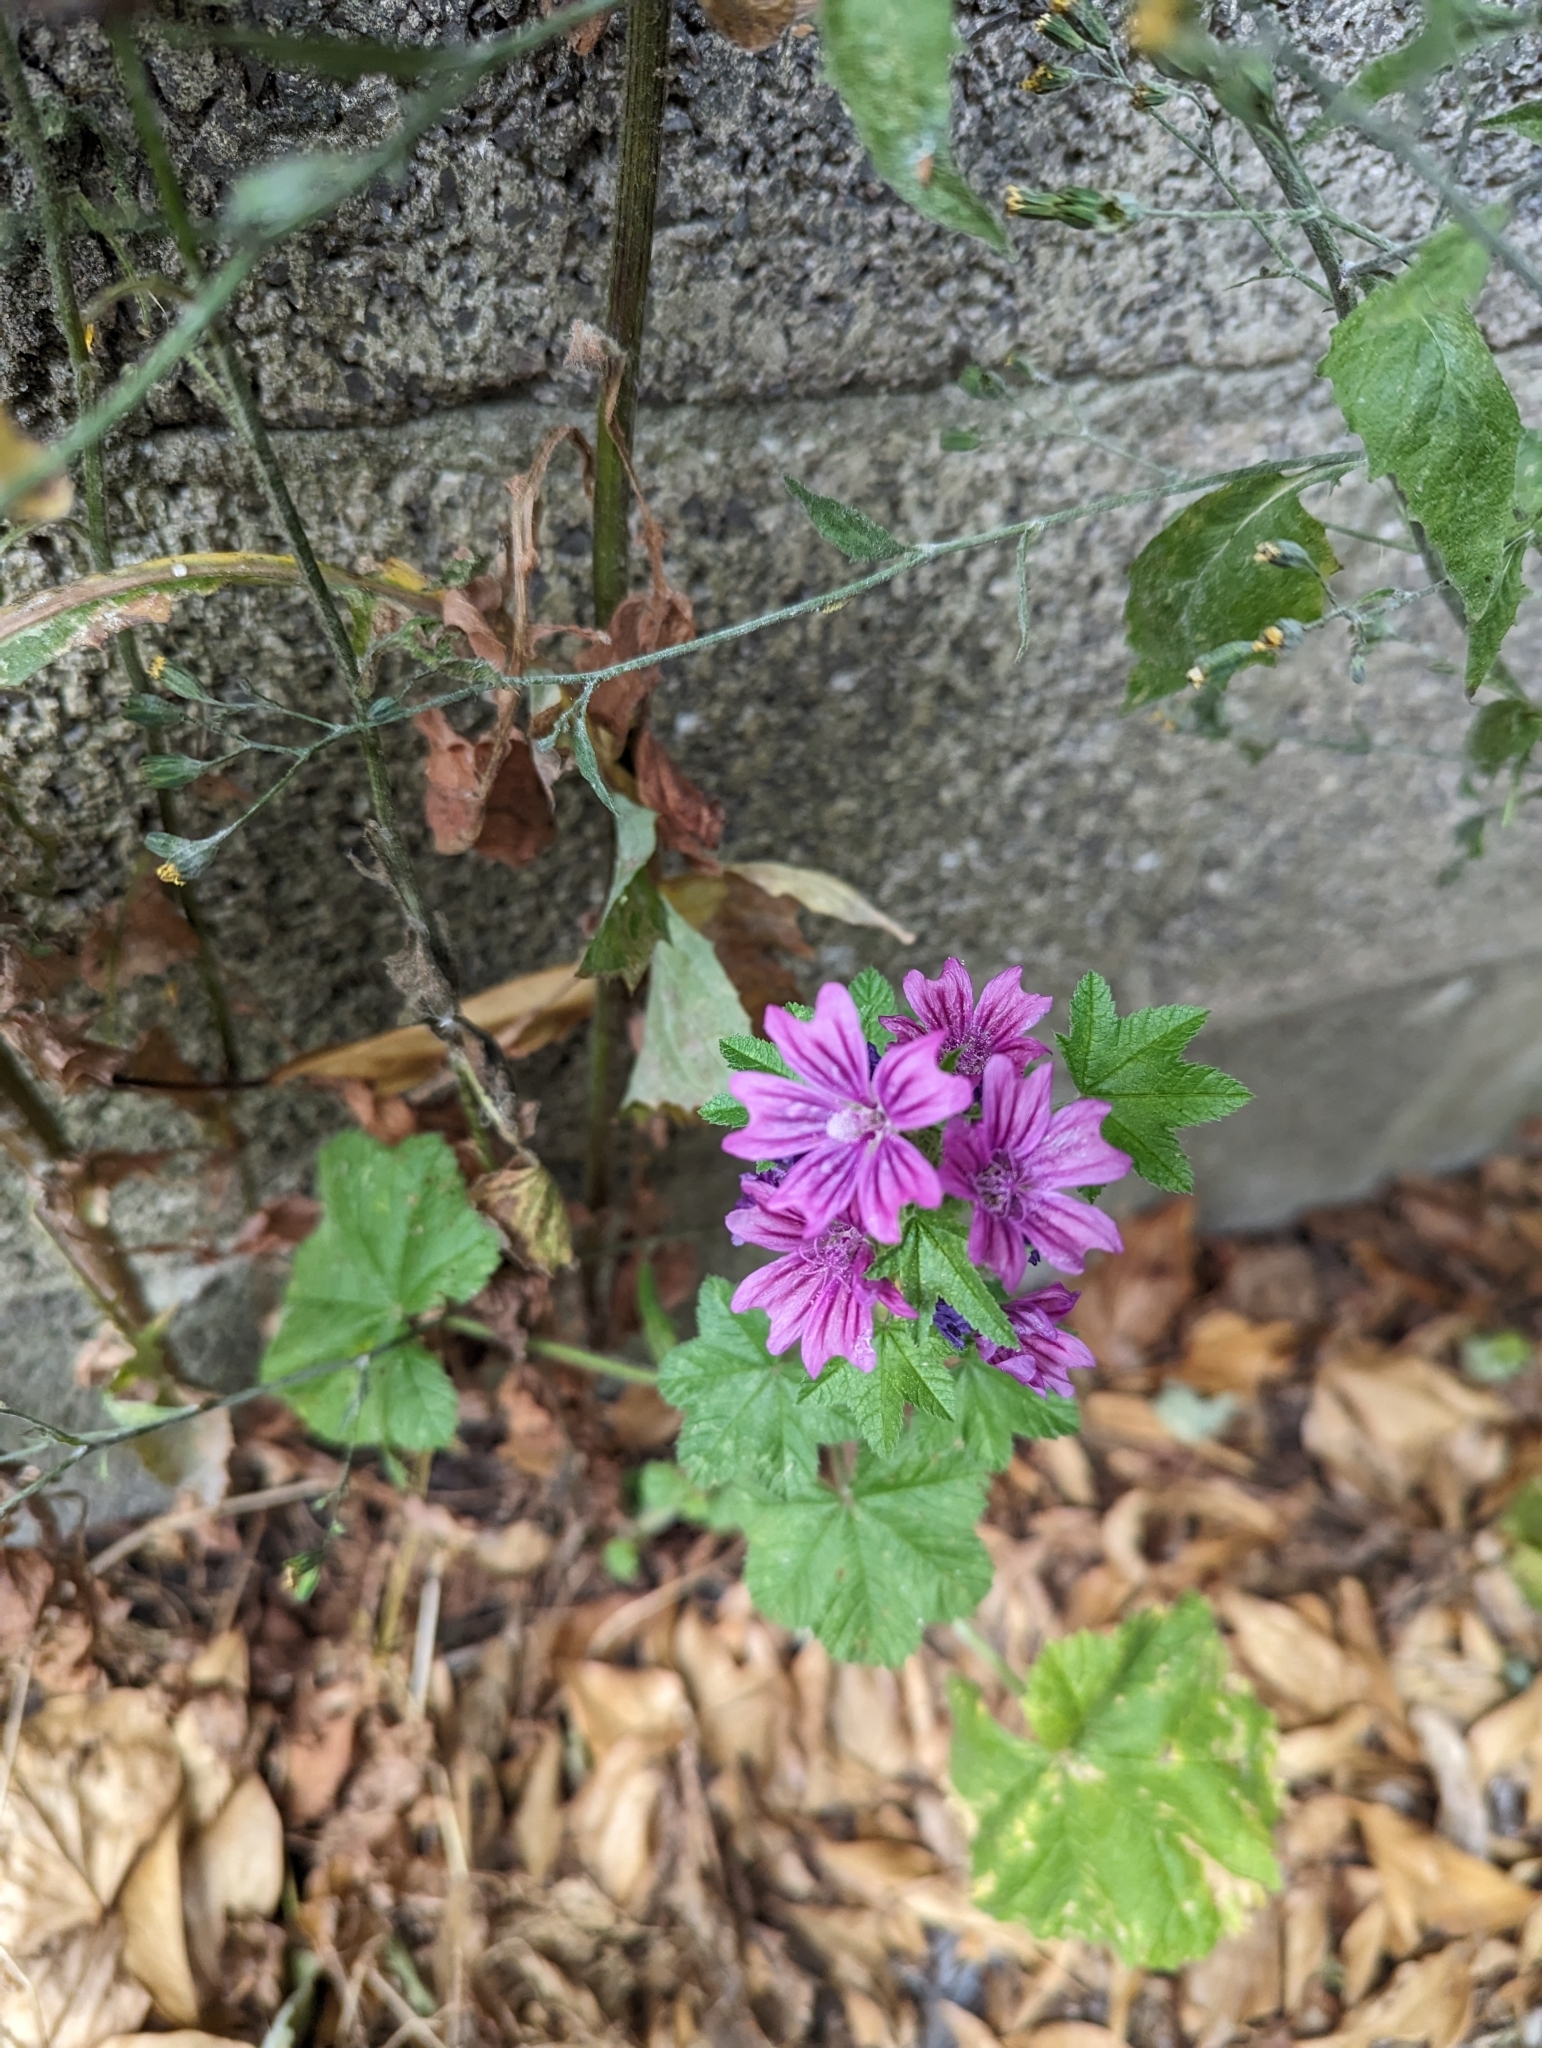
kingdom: Plantae
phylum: Tracheophyta
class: Magnoliopsida
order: Malvales
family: Malvaceae
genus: Malva
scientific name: Malva sylvestris
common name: Common mallow
